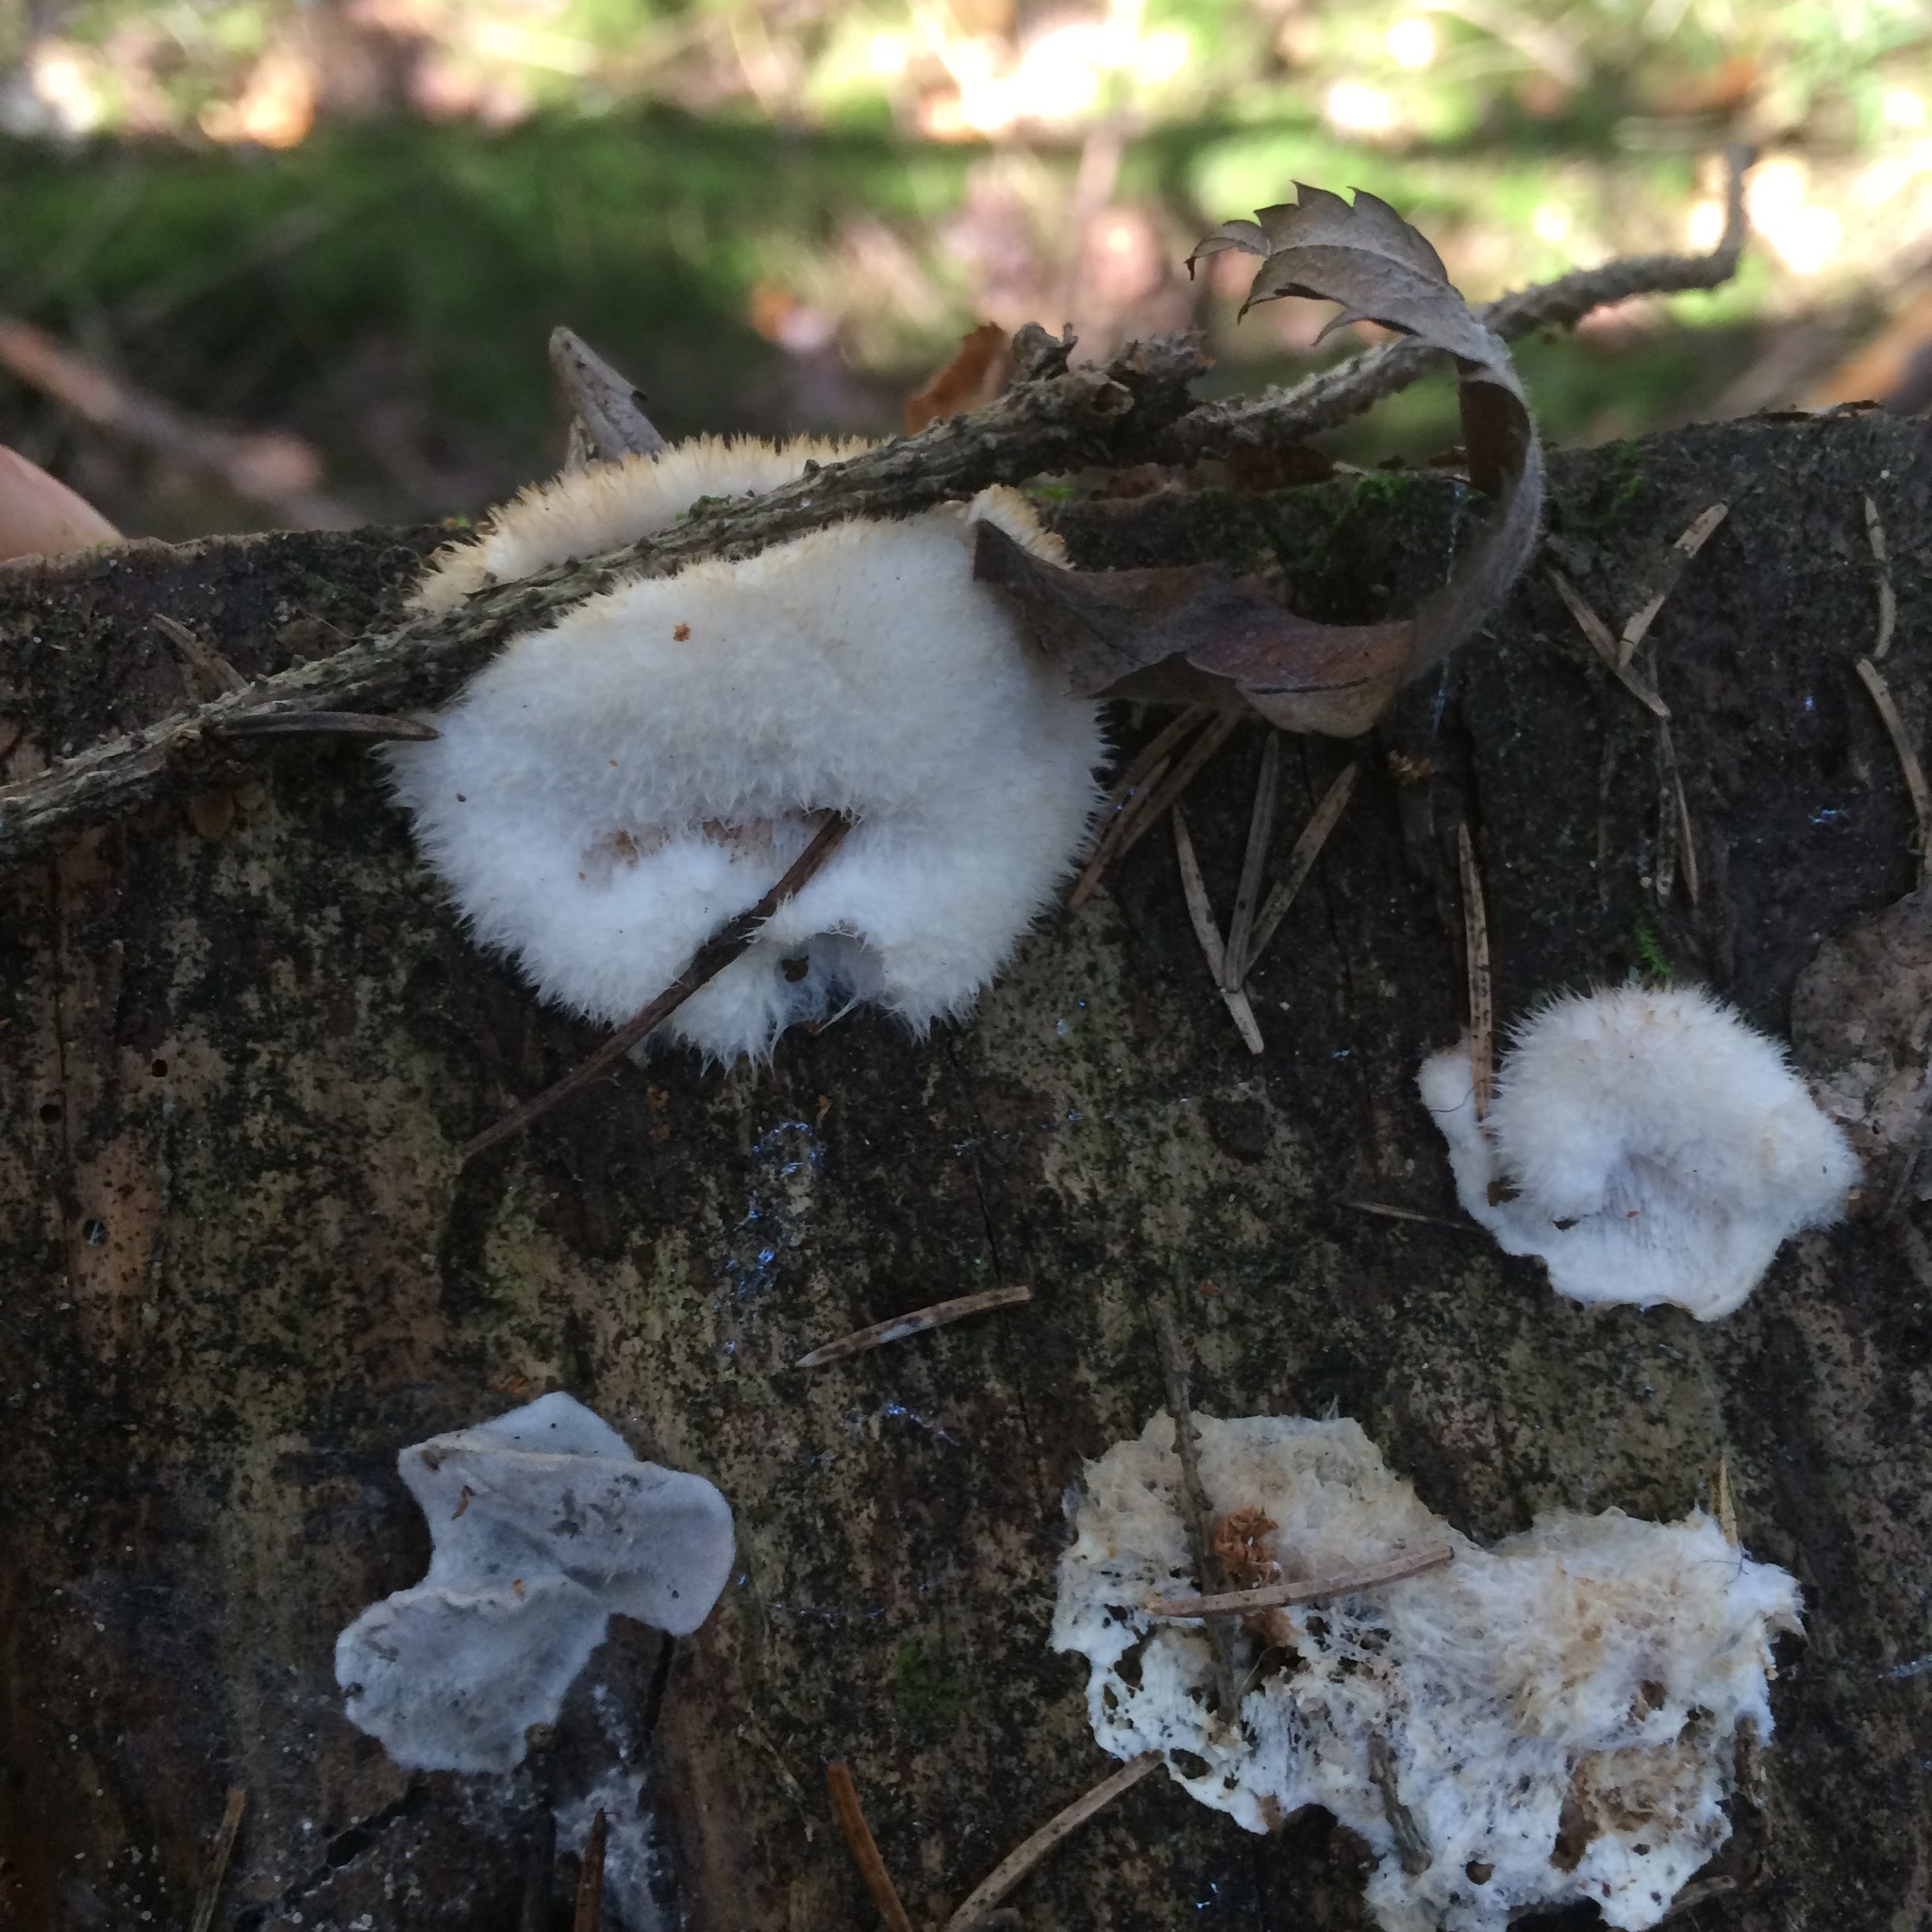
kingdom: Fungi
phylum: Basidiomycota
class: Agaricomycetes
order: Polyporales
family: Dacryobolaceae
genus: Postia
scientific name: Postia ptychogaster
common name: Powderpuff bracket
